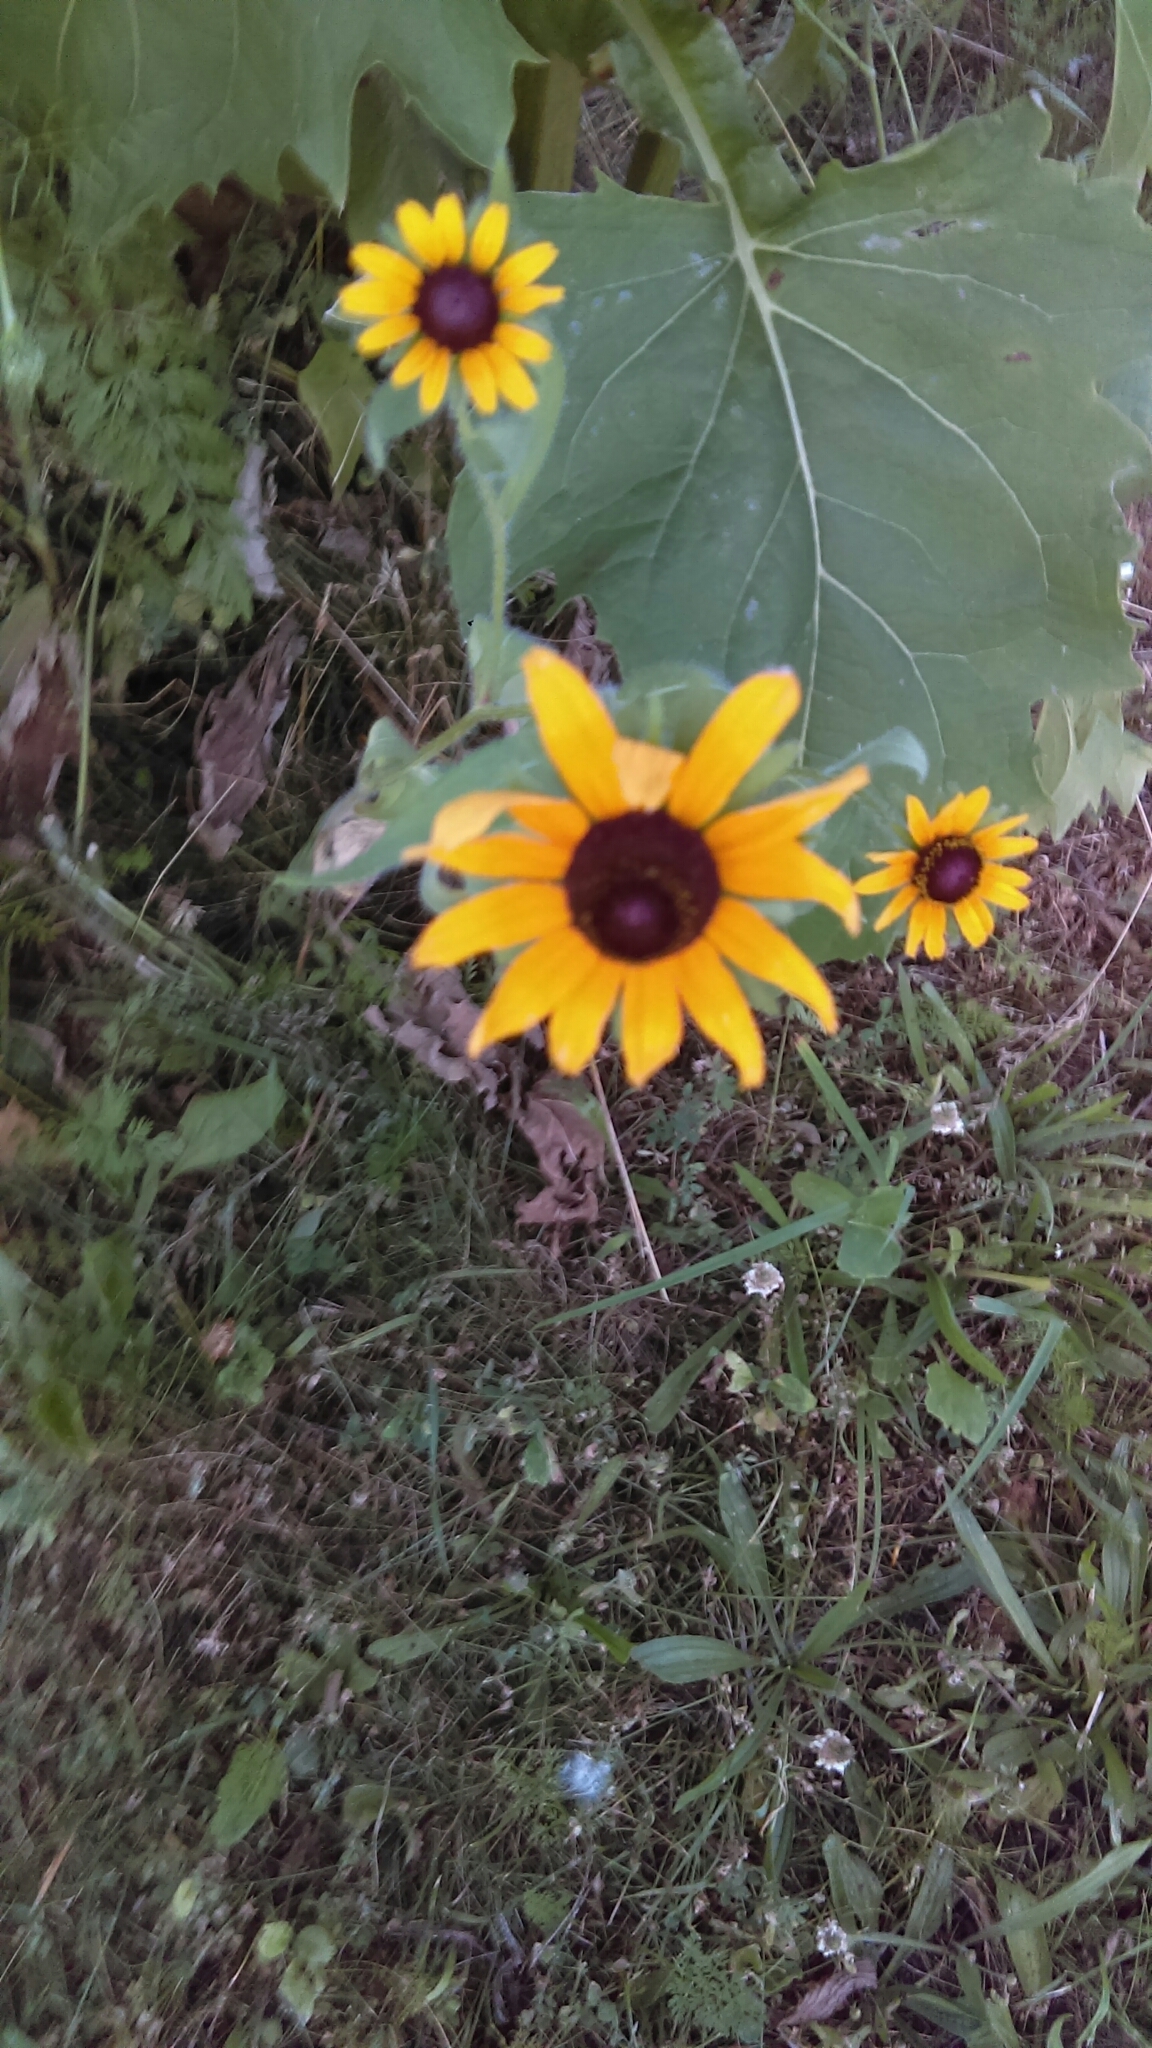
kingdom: Plantae
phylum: Tracheophyta
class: Magnoliopsida
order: Asterales
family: Asteraceae
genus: Rudbeckia
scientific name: Rudbeckia hirta
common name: Black-eyed-susan
